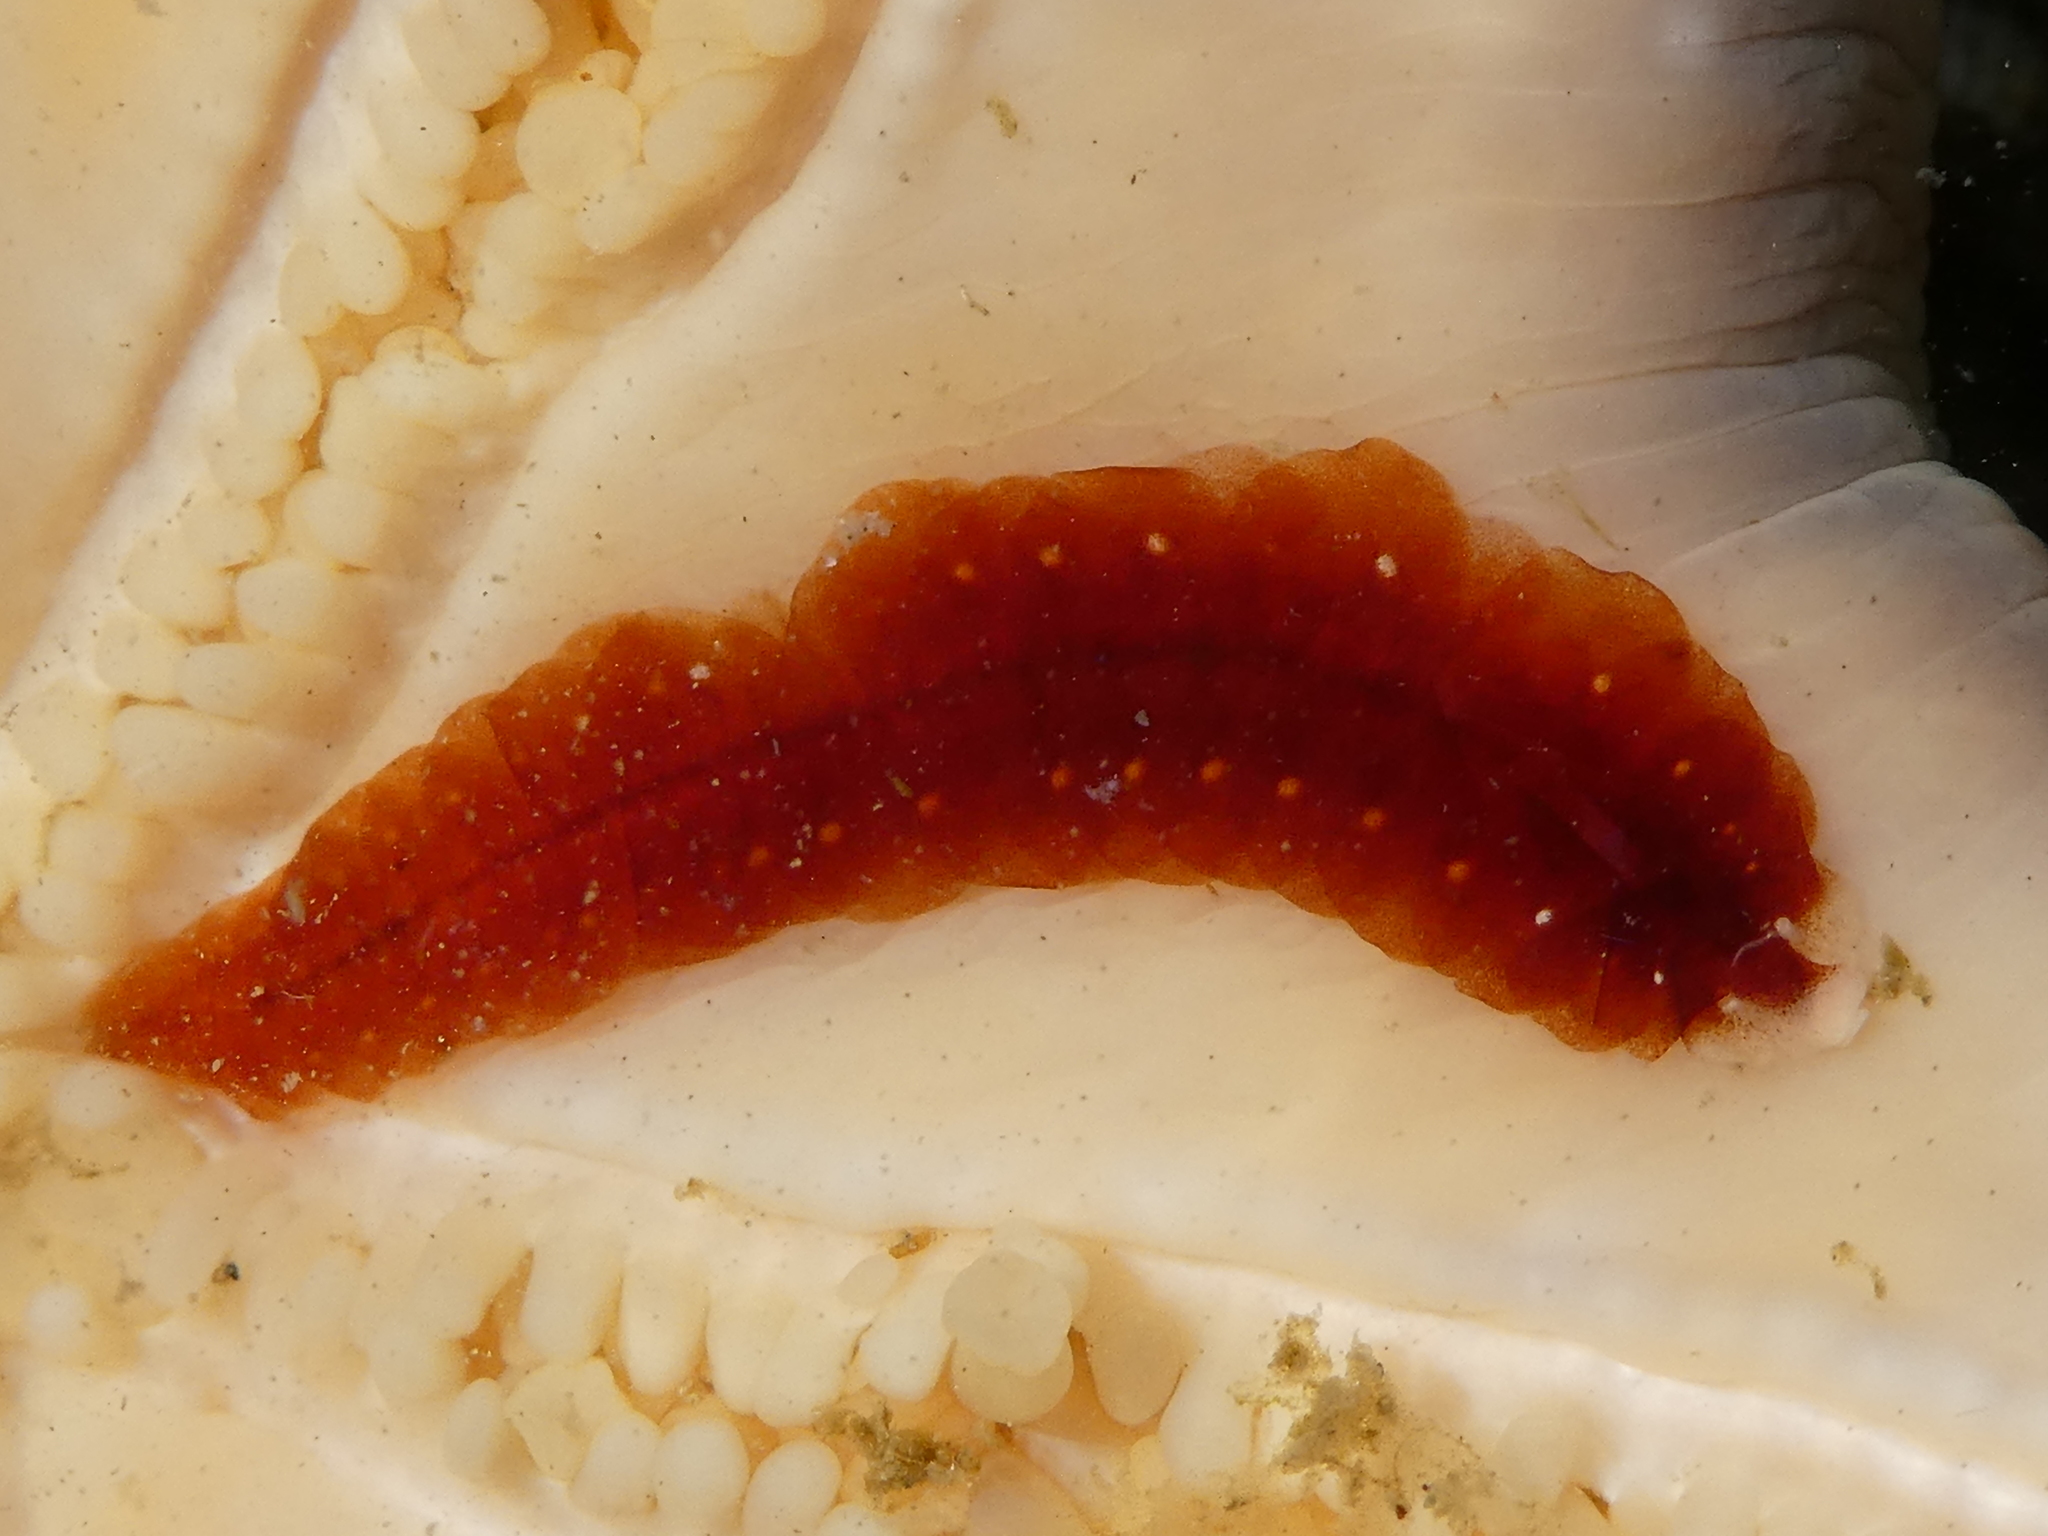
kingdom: Animalia
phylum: Annelida
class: Polychaeta
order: Phyllodocida
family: Polynoidae
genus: Arctonoe
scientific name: Arctonoe pulchra
